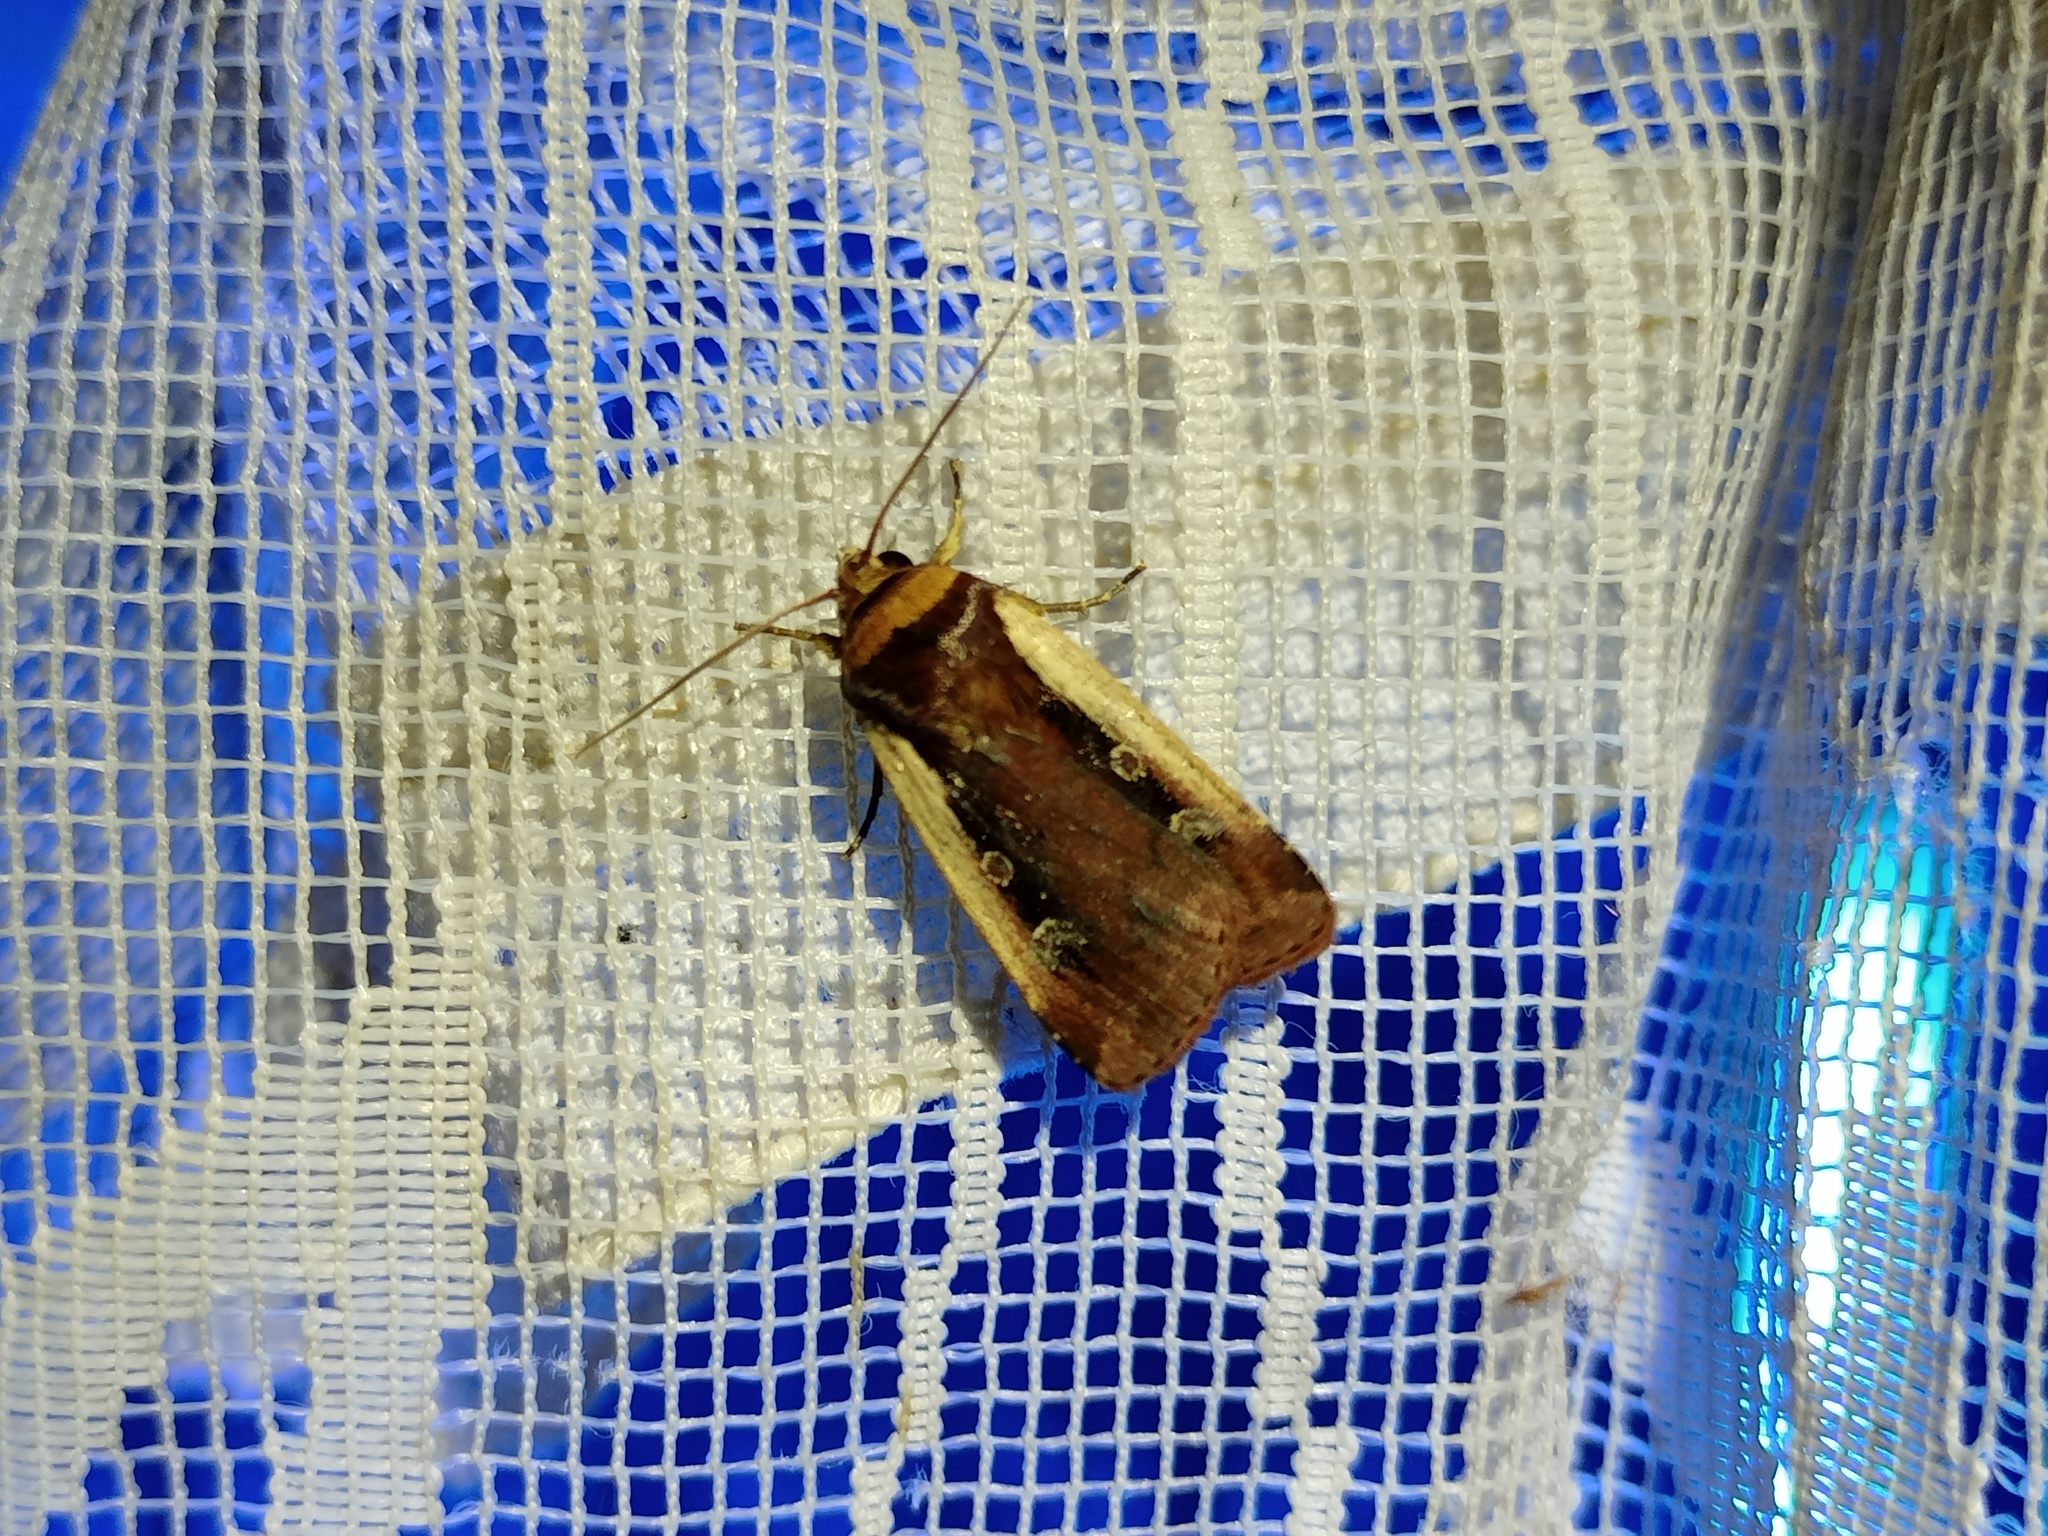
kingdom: Animalia
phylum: Arthropoda
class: Insecta
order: Lepidoptera
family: Noctuidae
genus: Ochropleura
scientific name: Ochropleura plecta
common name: Flame shoulder
